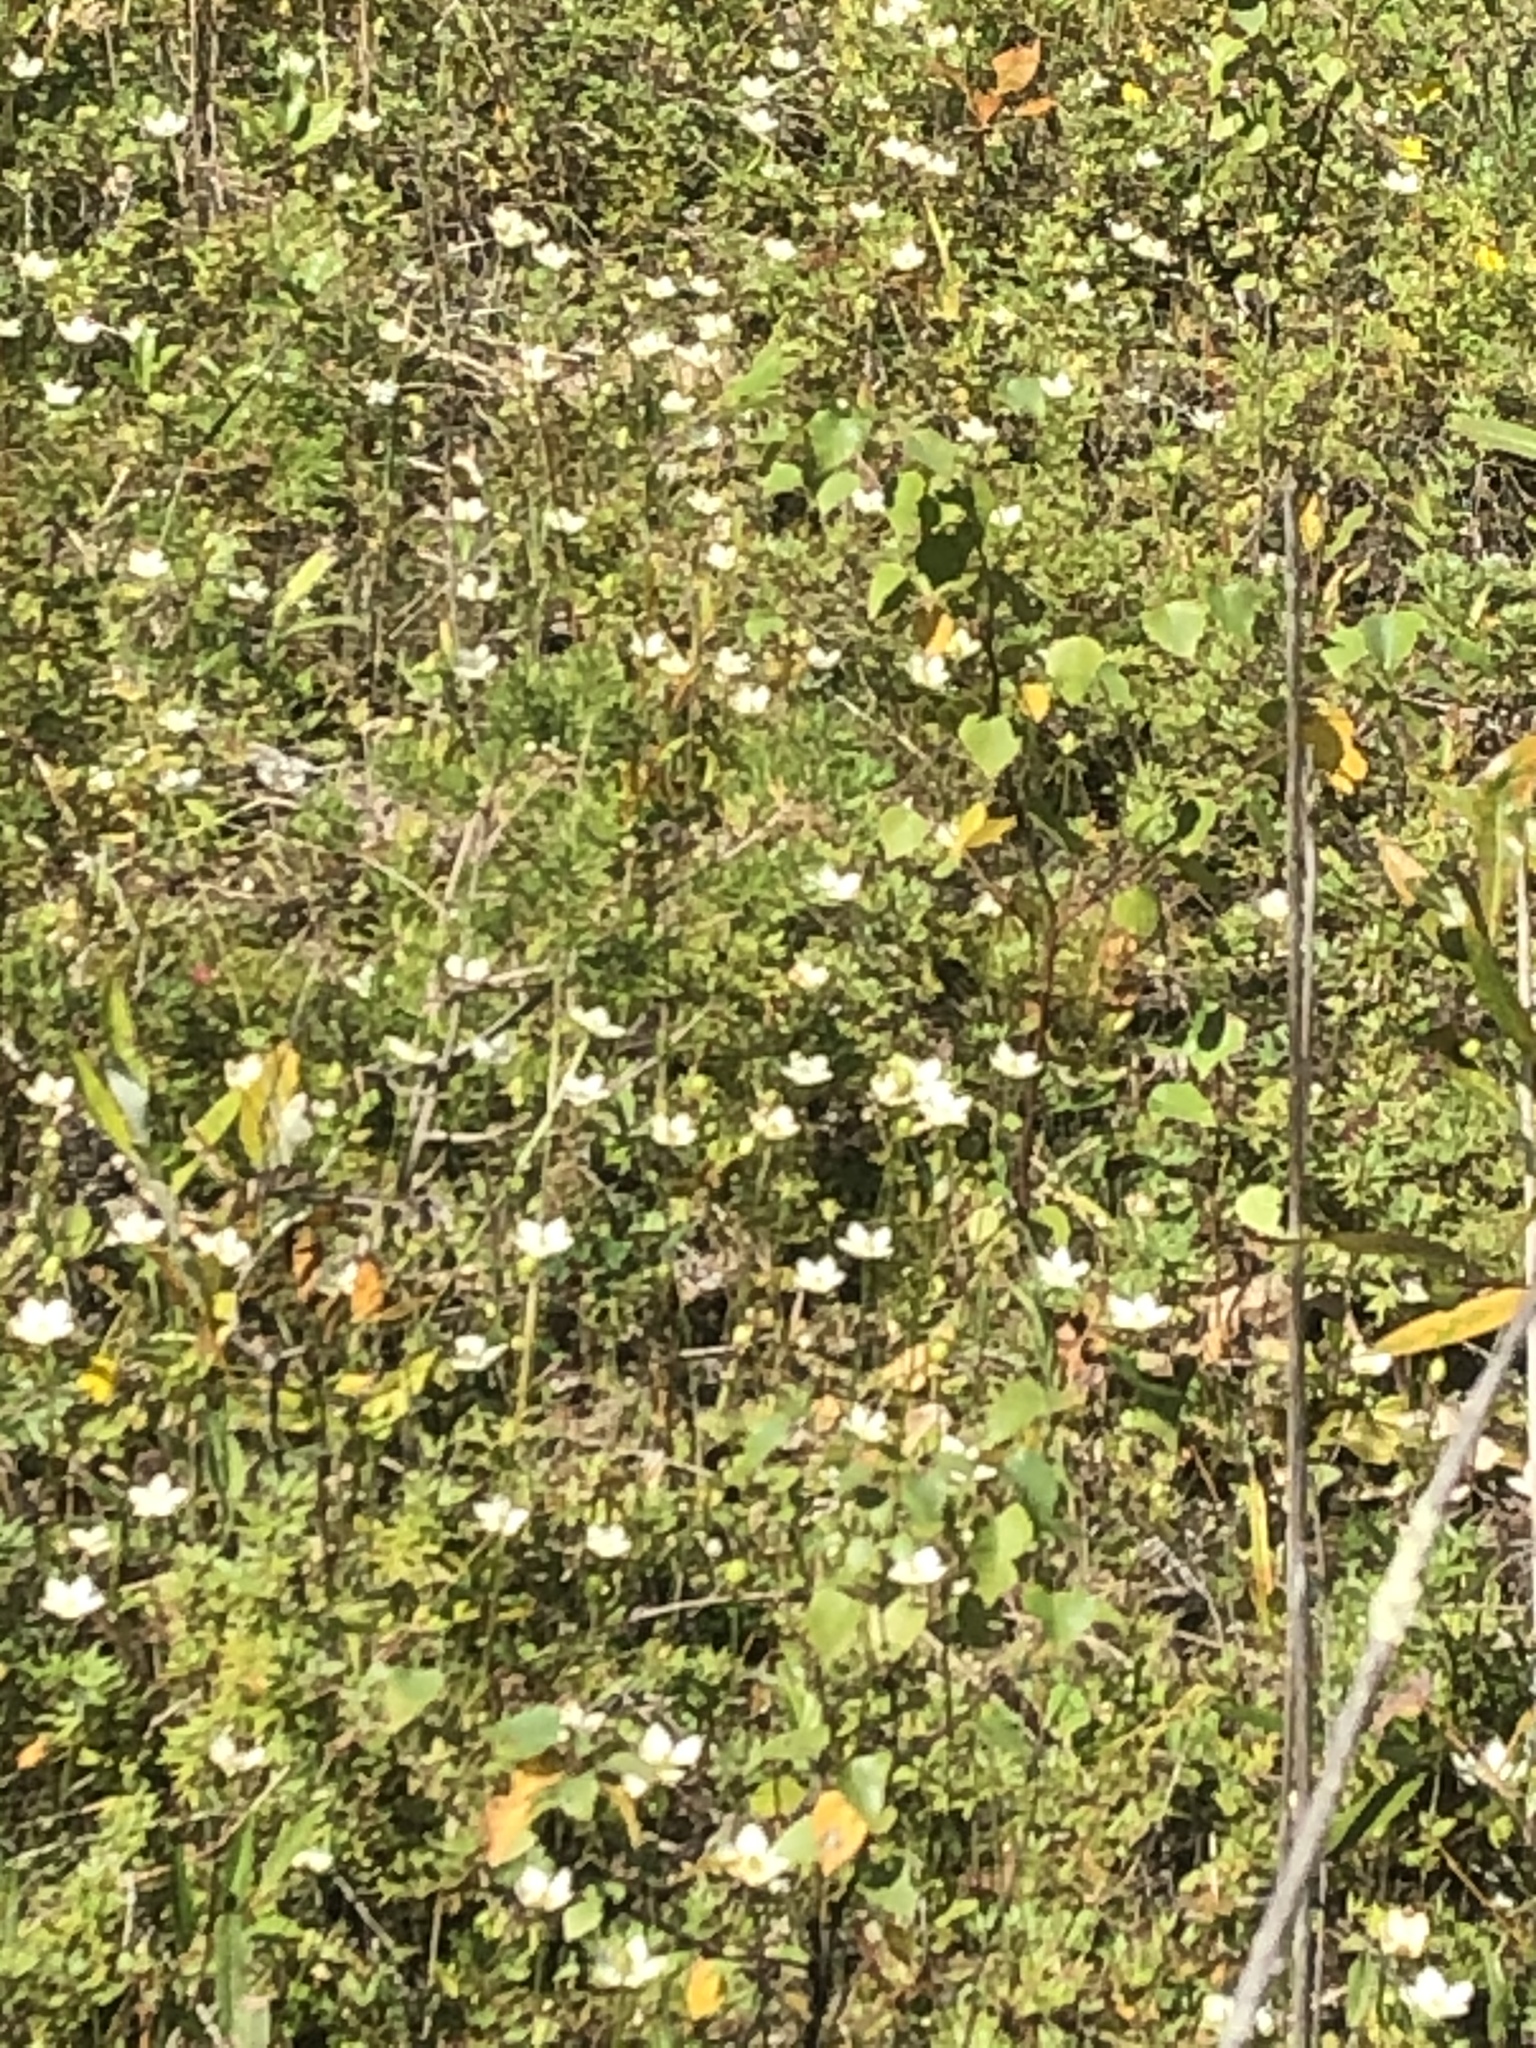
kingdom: Plantae
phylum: Tracheophyta
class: Magnoliopsida
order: Celastrales
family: Parnassiaceae
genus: Parnassia
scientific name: Parnassia glauca
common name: American grass-of-parnassus
